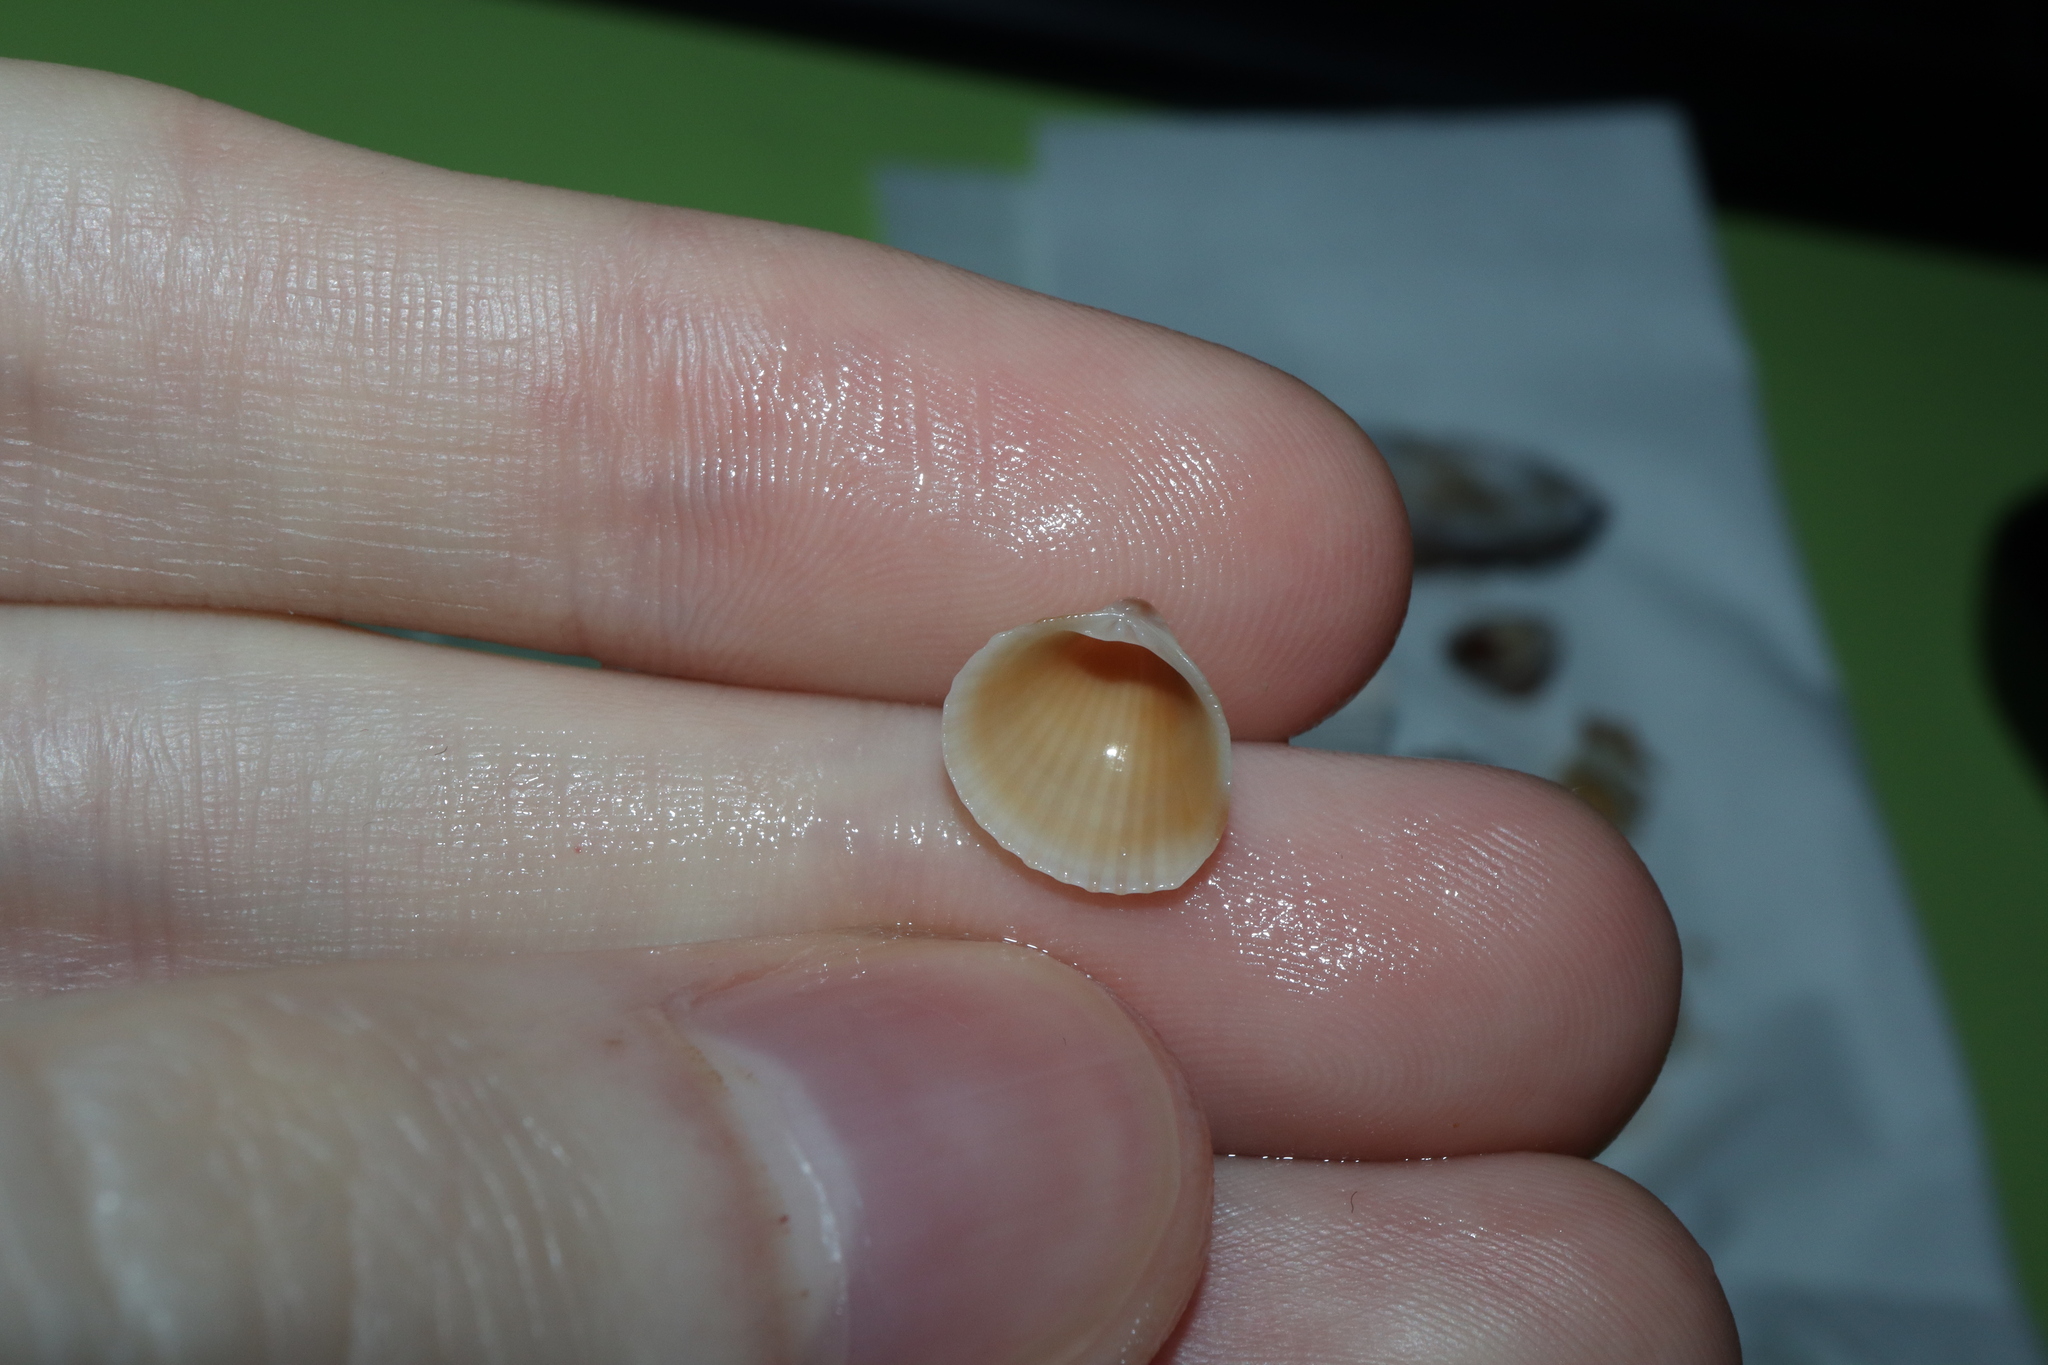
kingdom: Animalia
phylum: Mollusca
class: Bivalvia
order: Venerida
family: Veneridae
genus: Timoclea
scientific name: Timoclea scabra
